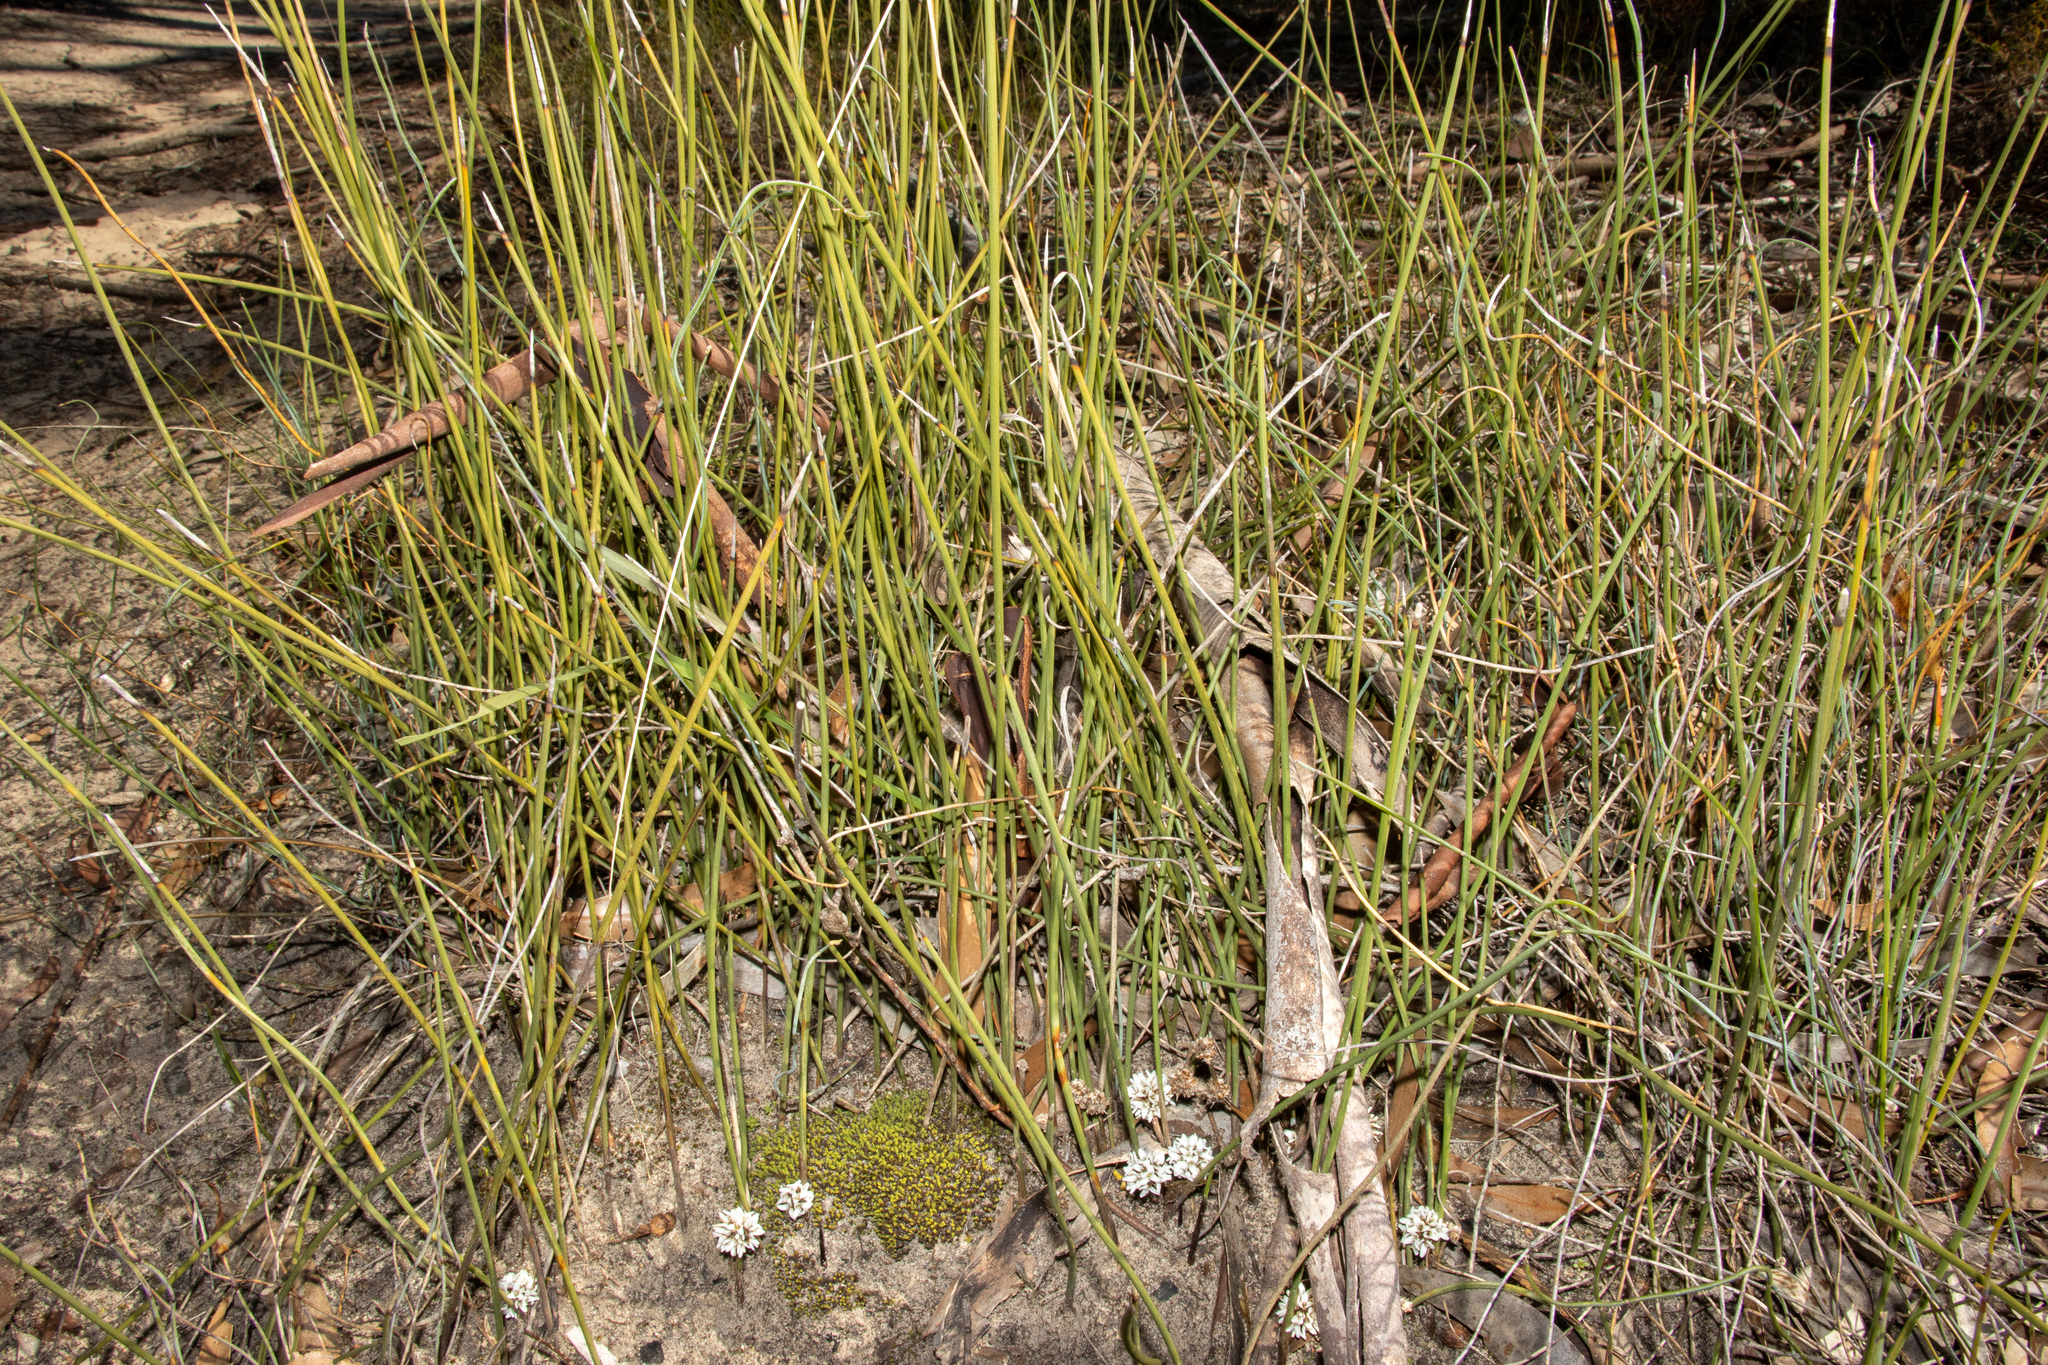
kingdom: Plantae
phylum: Tracheophyta
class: Liliopsida
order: Asparagales
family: Asparagaceae
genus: Lomandra
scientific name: Lomandra juncea
